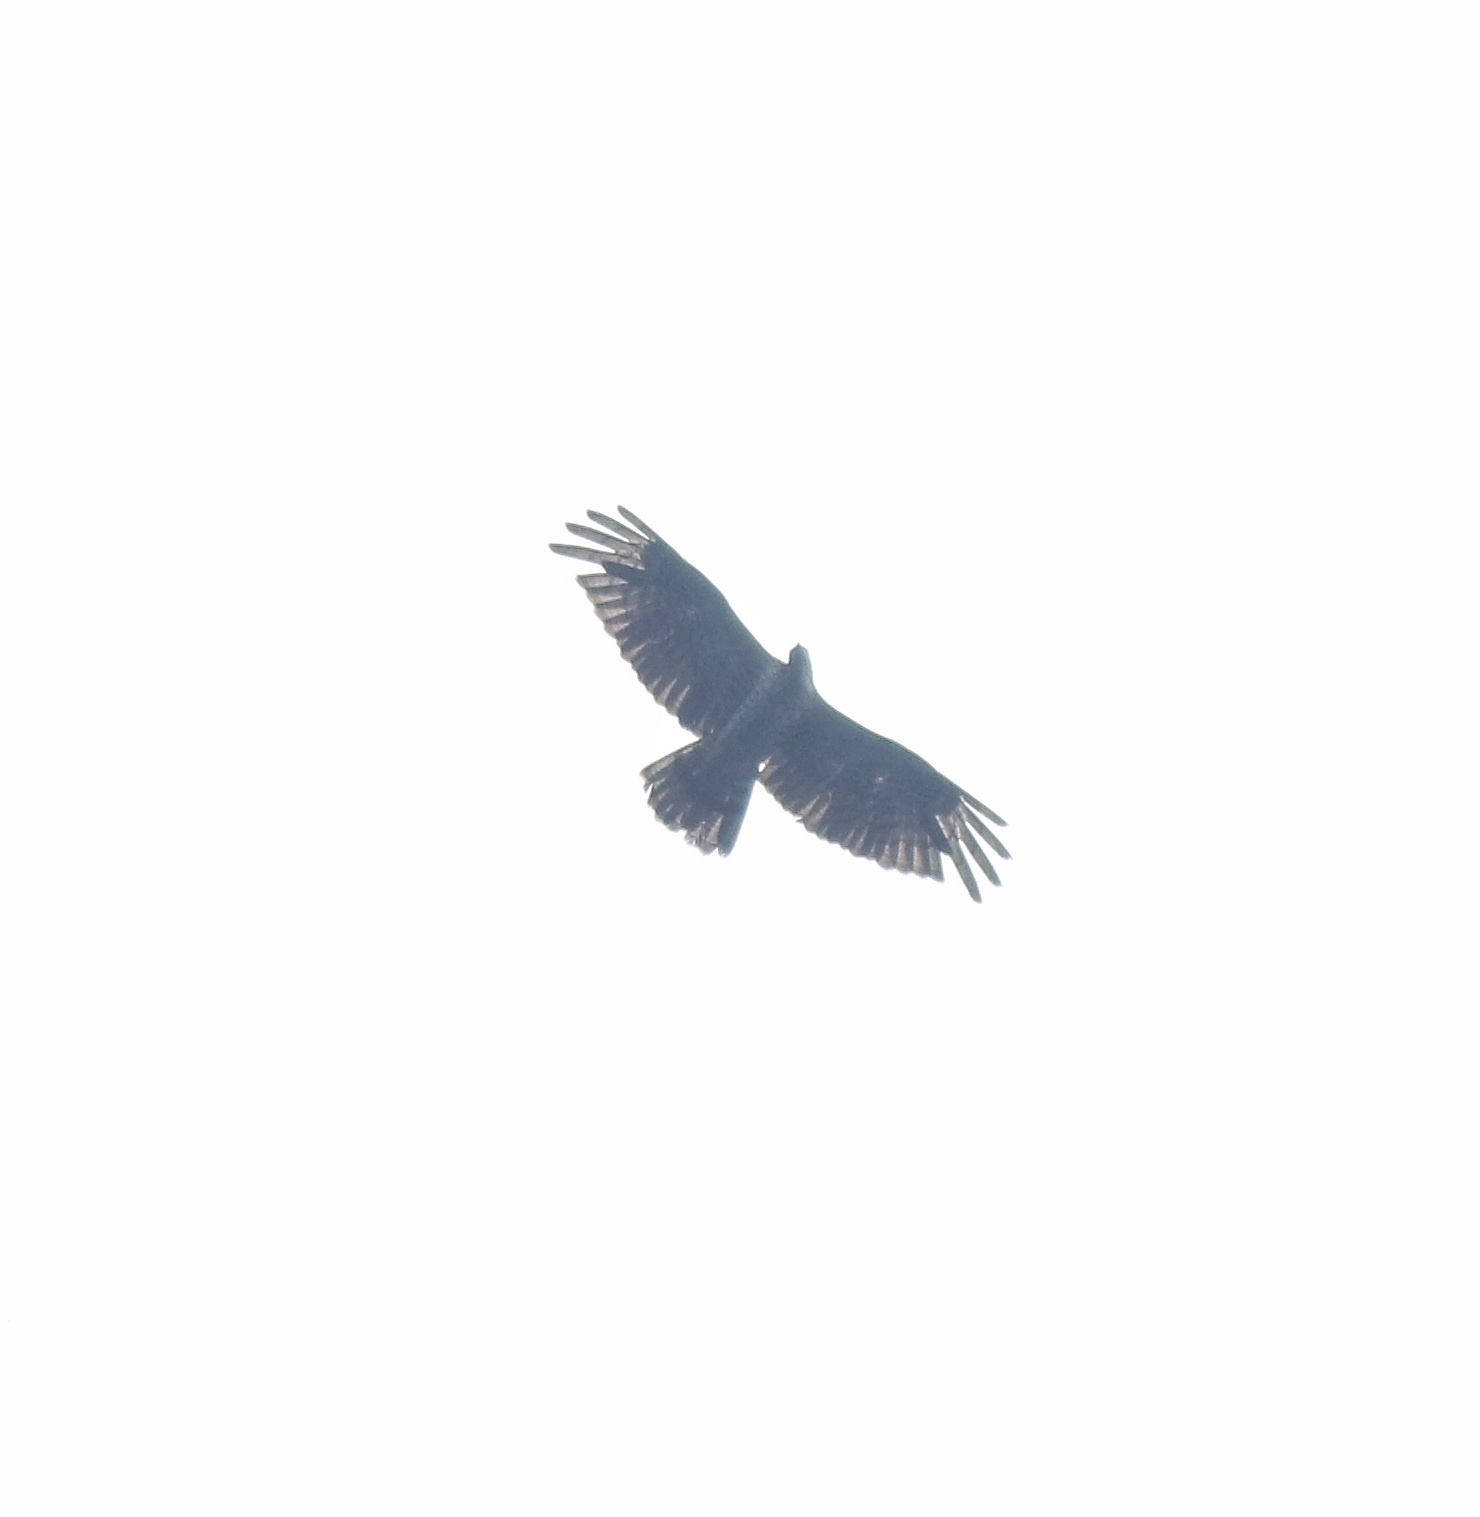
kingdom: Animalia
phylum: Chordata
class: Aves
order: Accipitriformes
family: Accipitridae
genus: Pernis
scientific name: Pernis ptilorhynchus
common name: Crested honey buzzard
